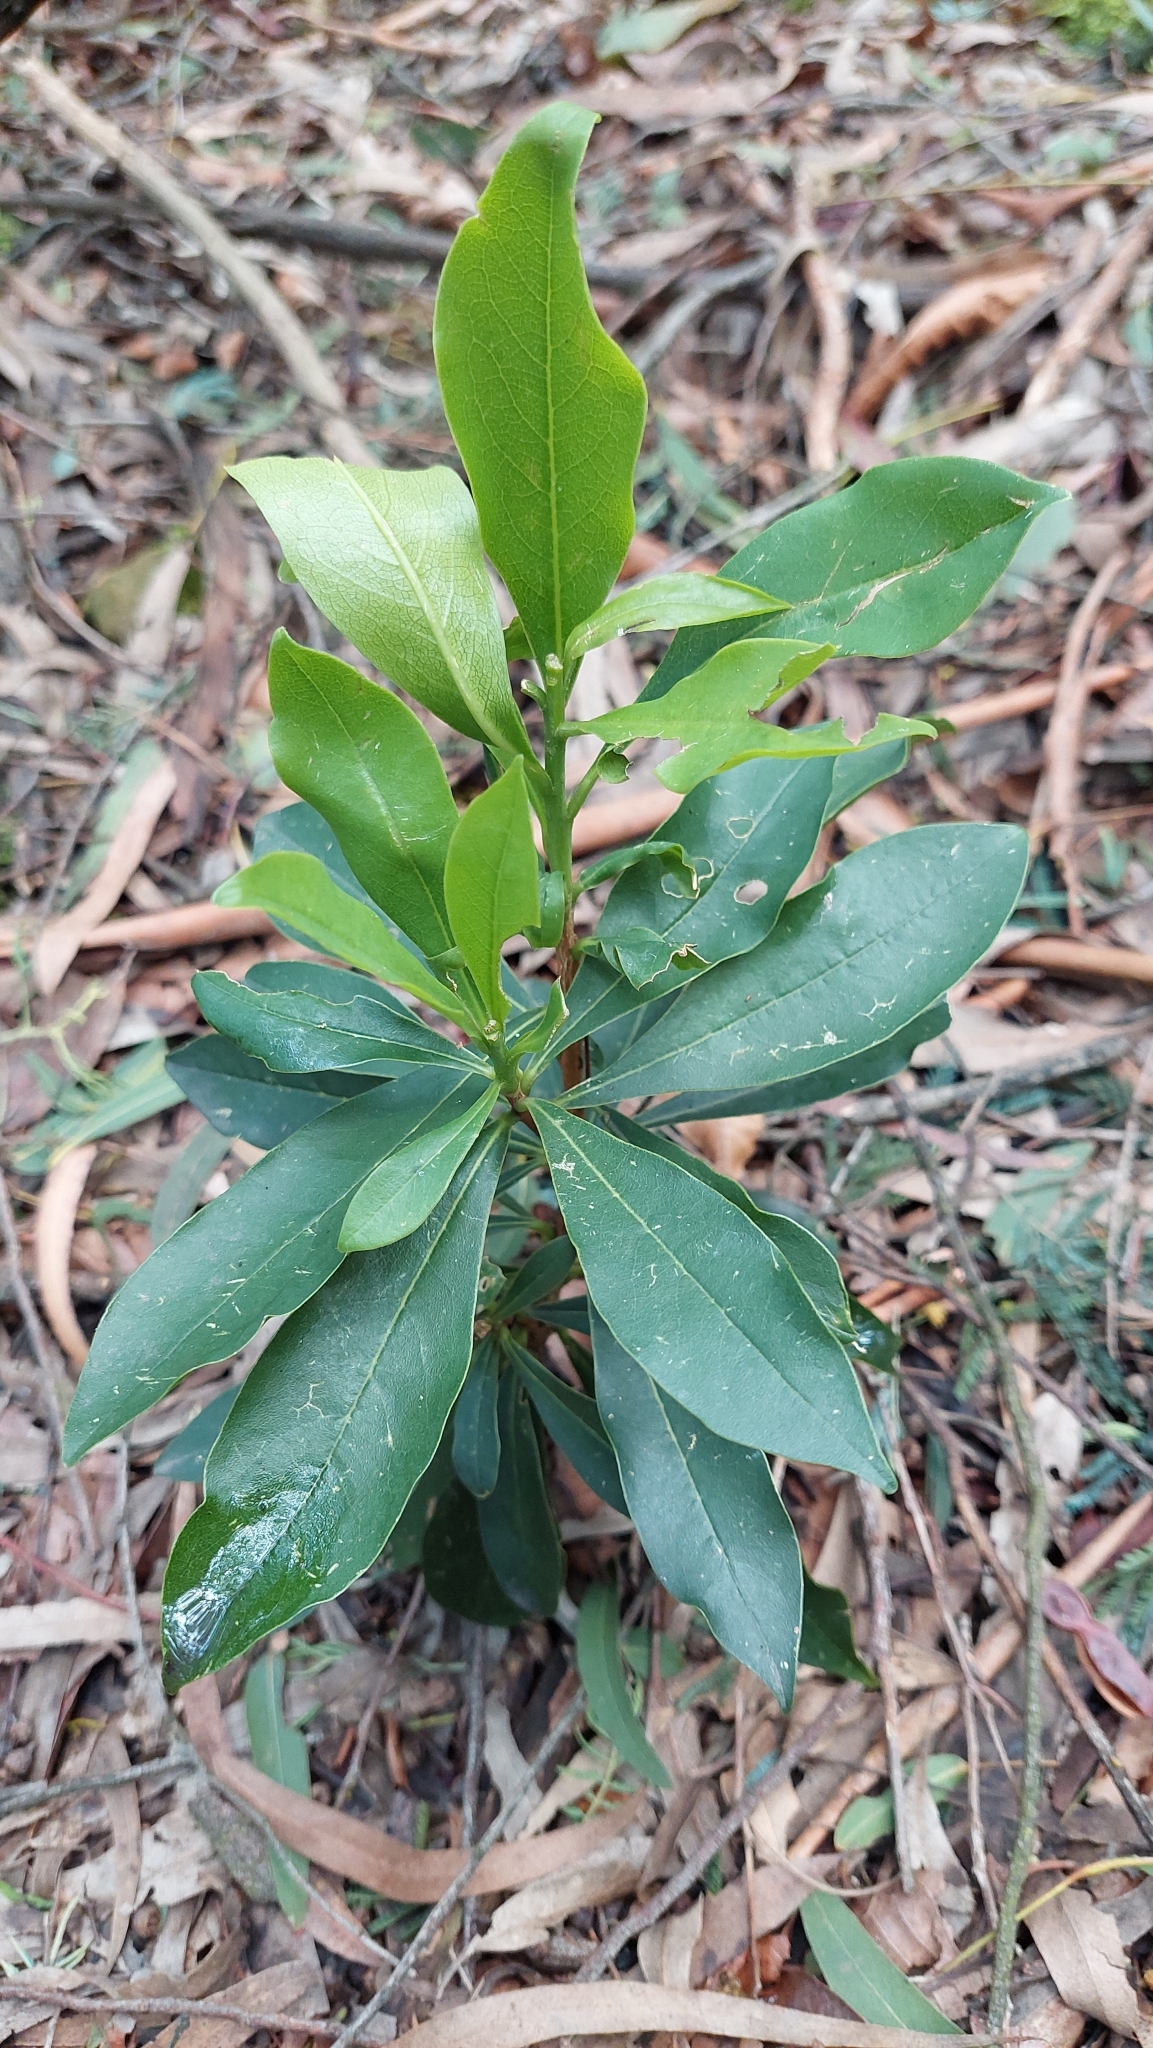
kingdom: Plantae
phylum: Tracheophyta
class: Magnoliopsida
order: Malvales
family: Thymelaeaceae
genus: Daphnopsis
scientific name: Daphnopsis caracasana
